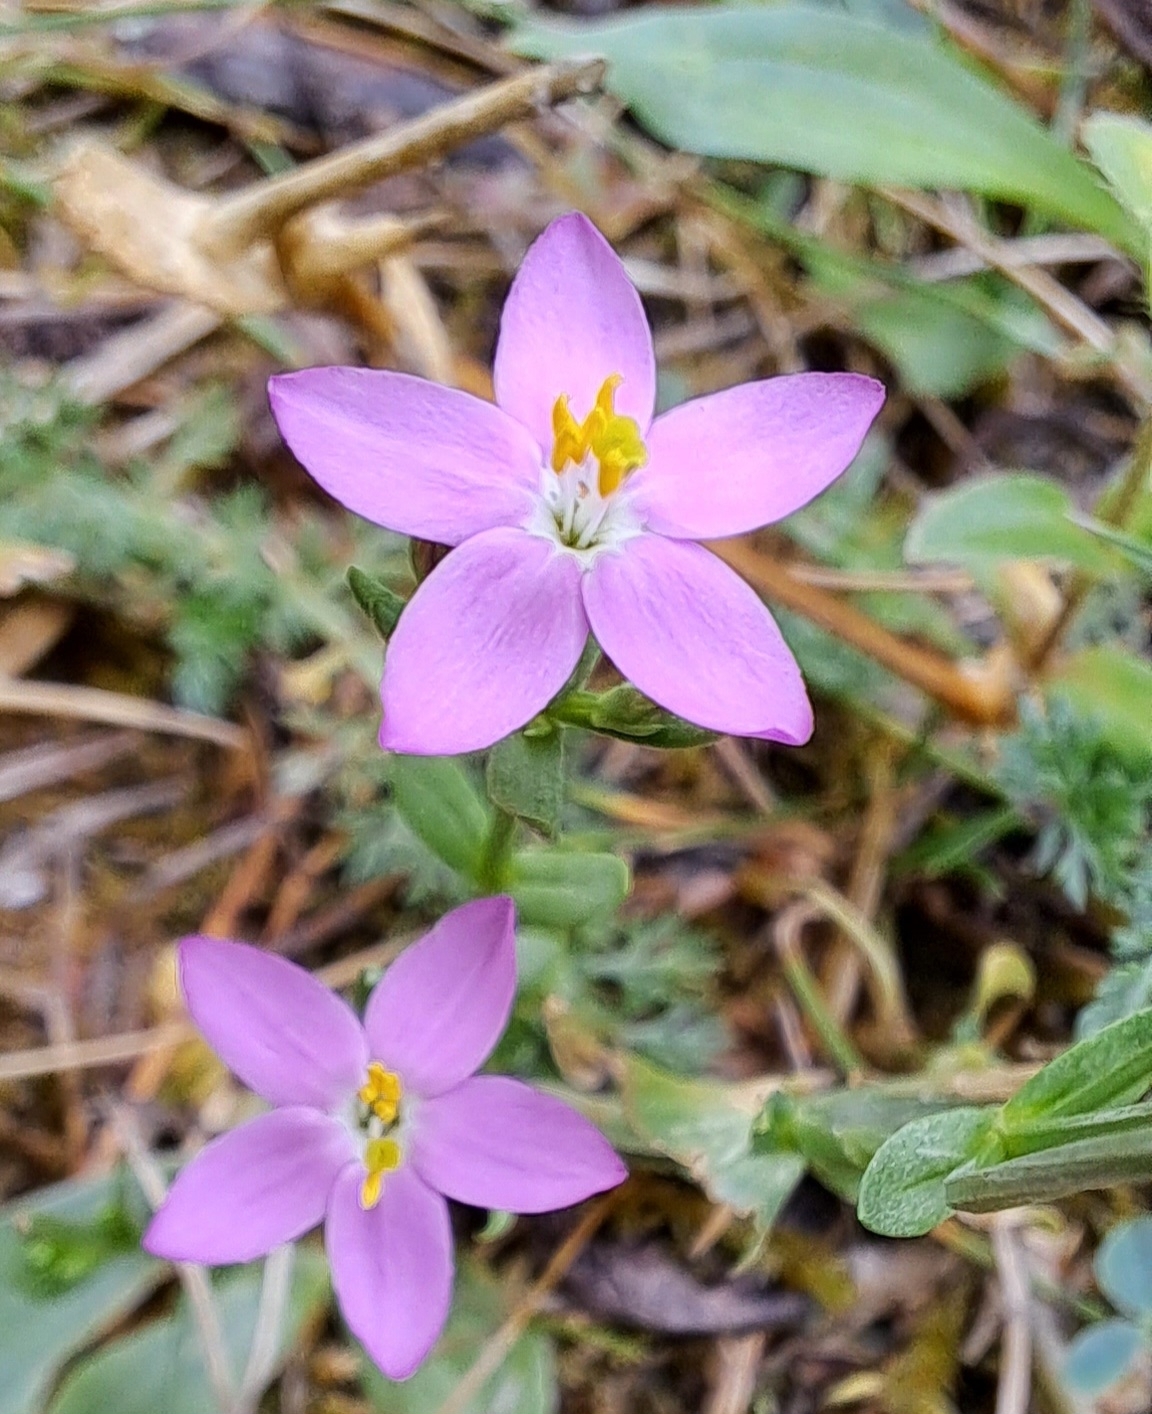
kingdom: Plantae
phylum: Tracheophyta
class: Magnoliopsida
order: Gentianales
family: Gentianaceae
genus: Centaurium
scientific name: Centaurium erythraea
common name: Common centaury
